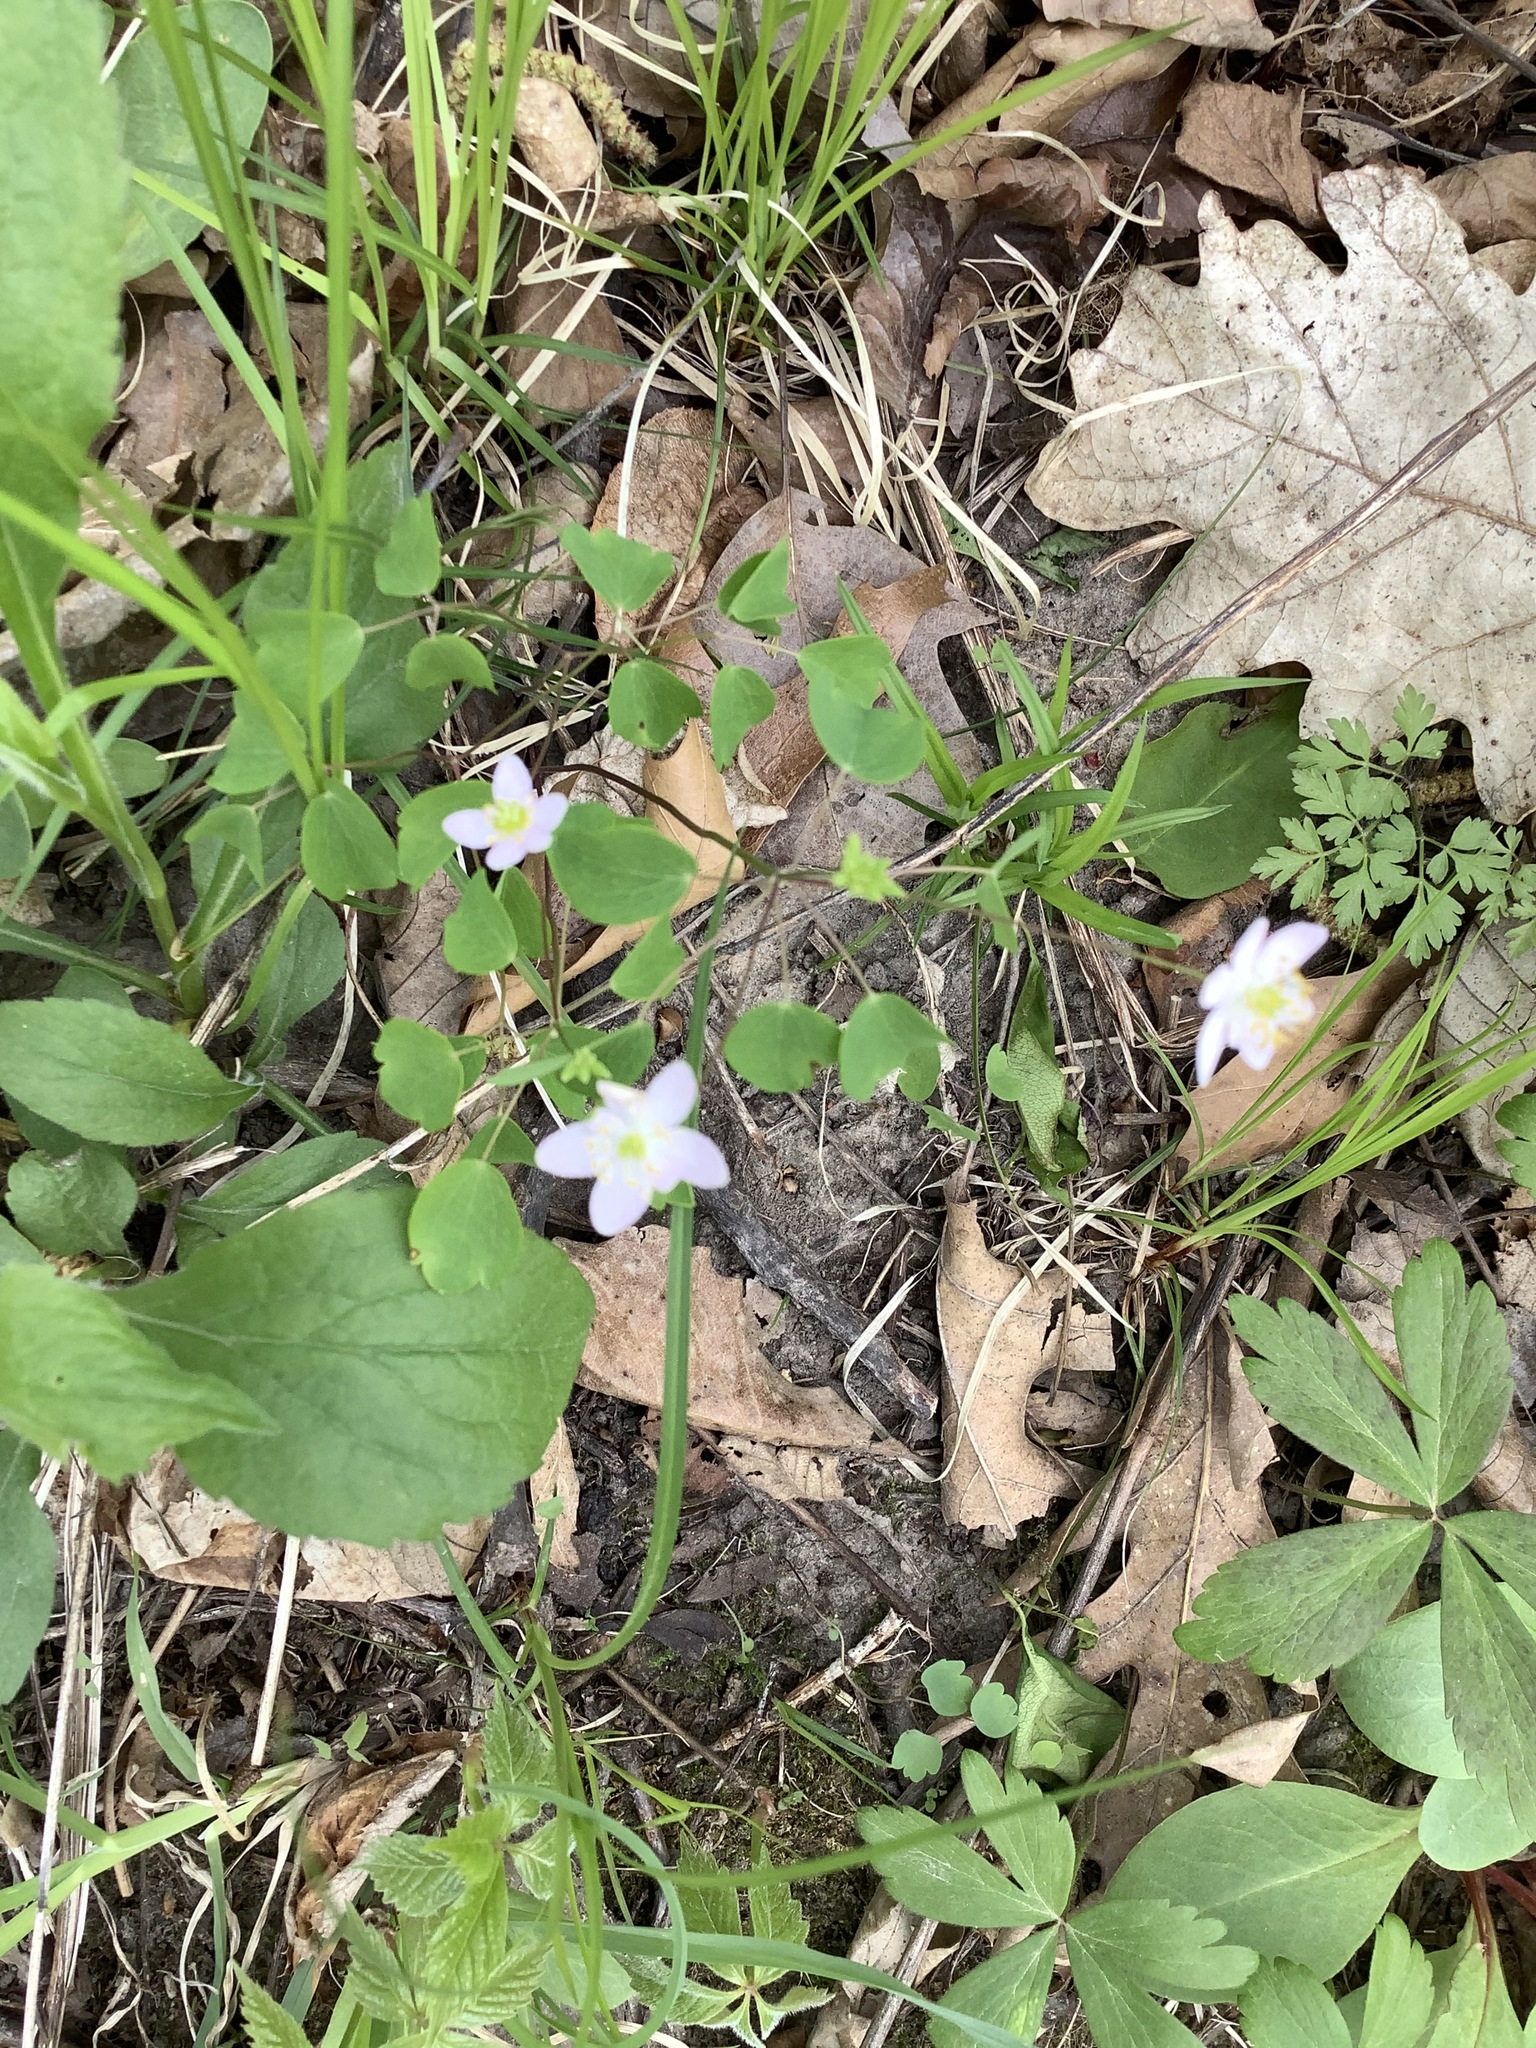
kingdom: Plantae
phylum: Tracheophyta
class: Magnoliopsida
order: Ranunculales
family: Ranunculaceae
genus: Thalictrum
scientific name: Thalictrum thalictroides
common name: Rue-anemone
